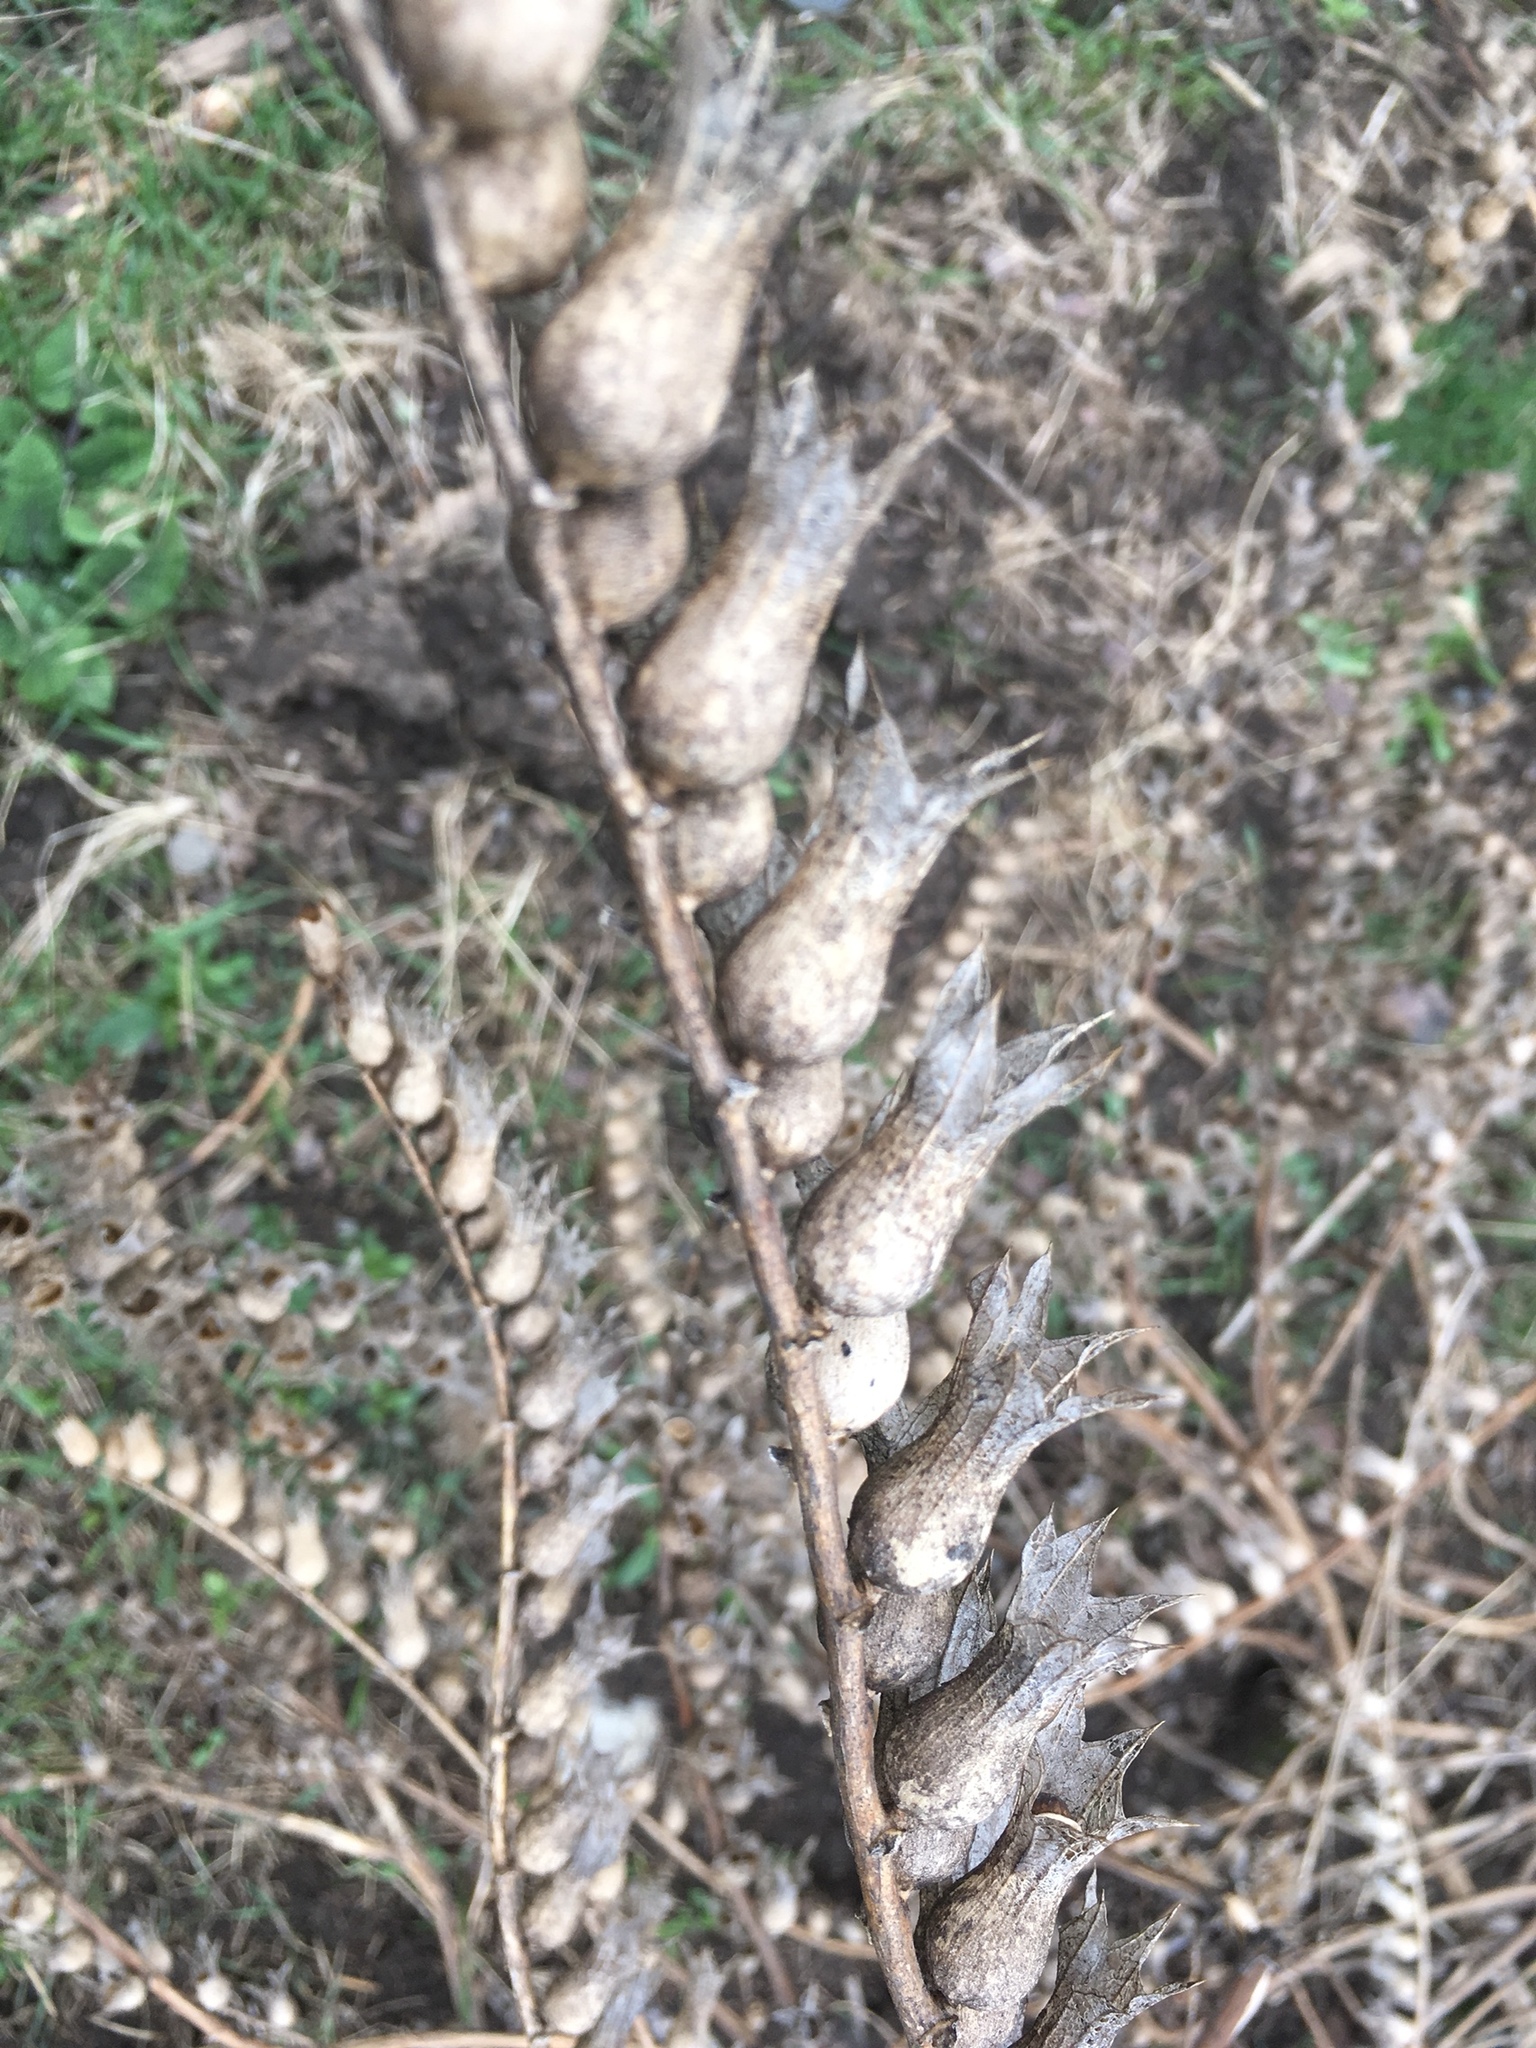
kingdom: Plantae
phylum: Tracheophyta
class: Magnoliopsida
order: Solanales
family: Solanaceae
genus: Hyoscyamus
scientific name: Hyoscyamus niger
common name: Henbane
